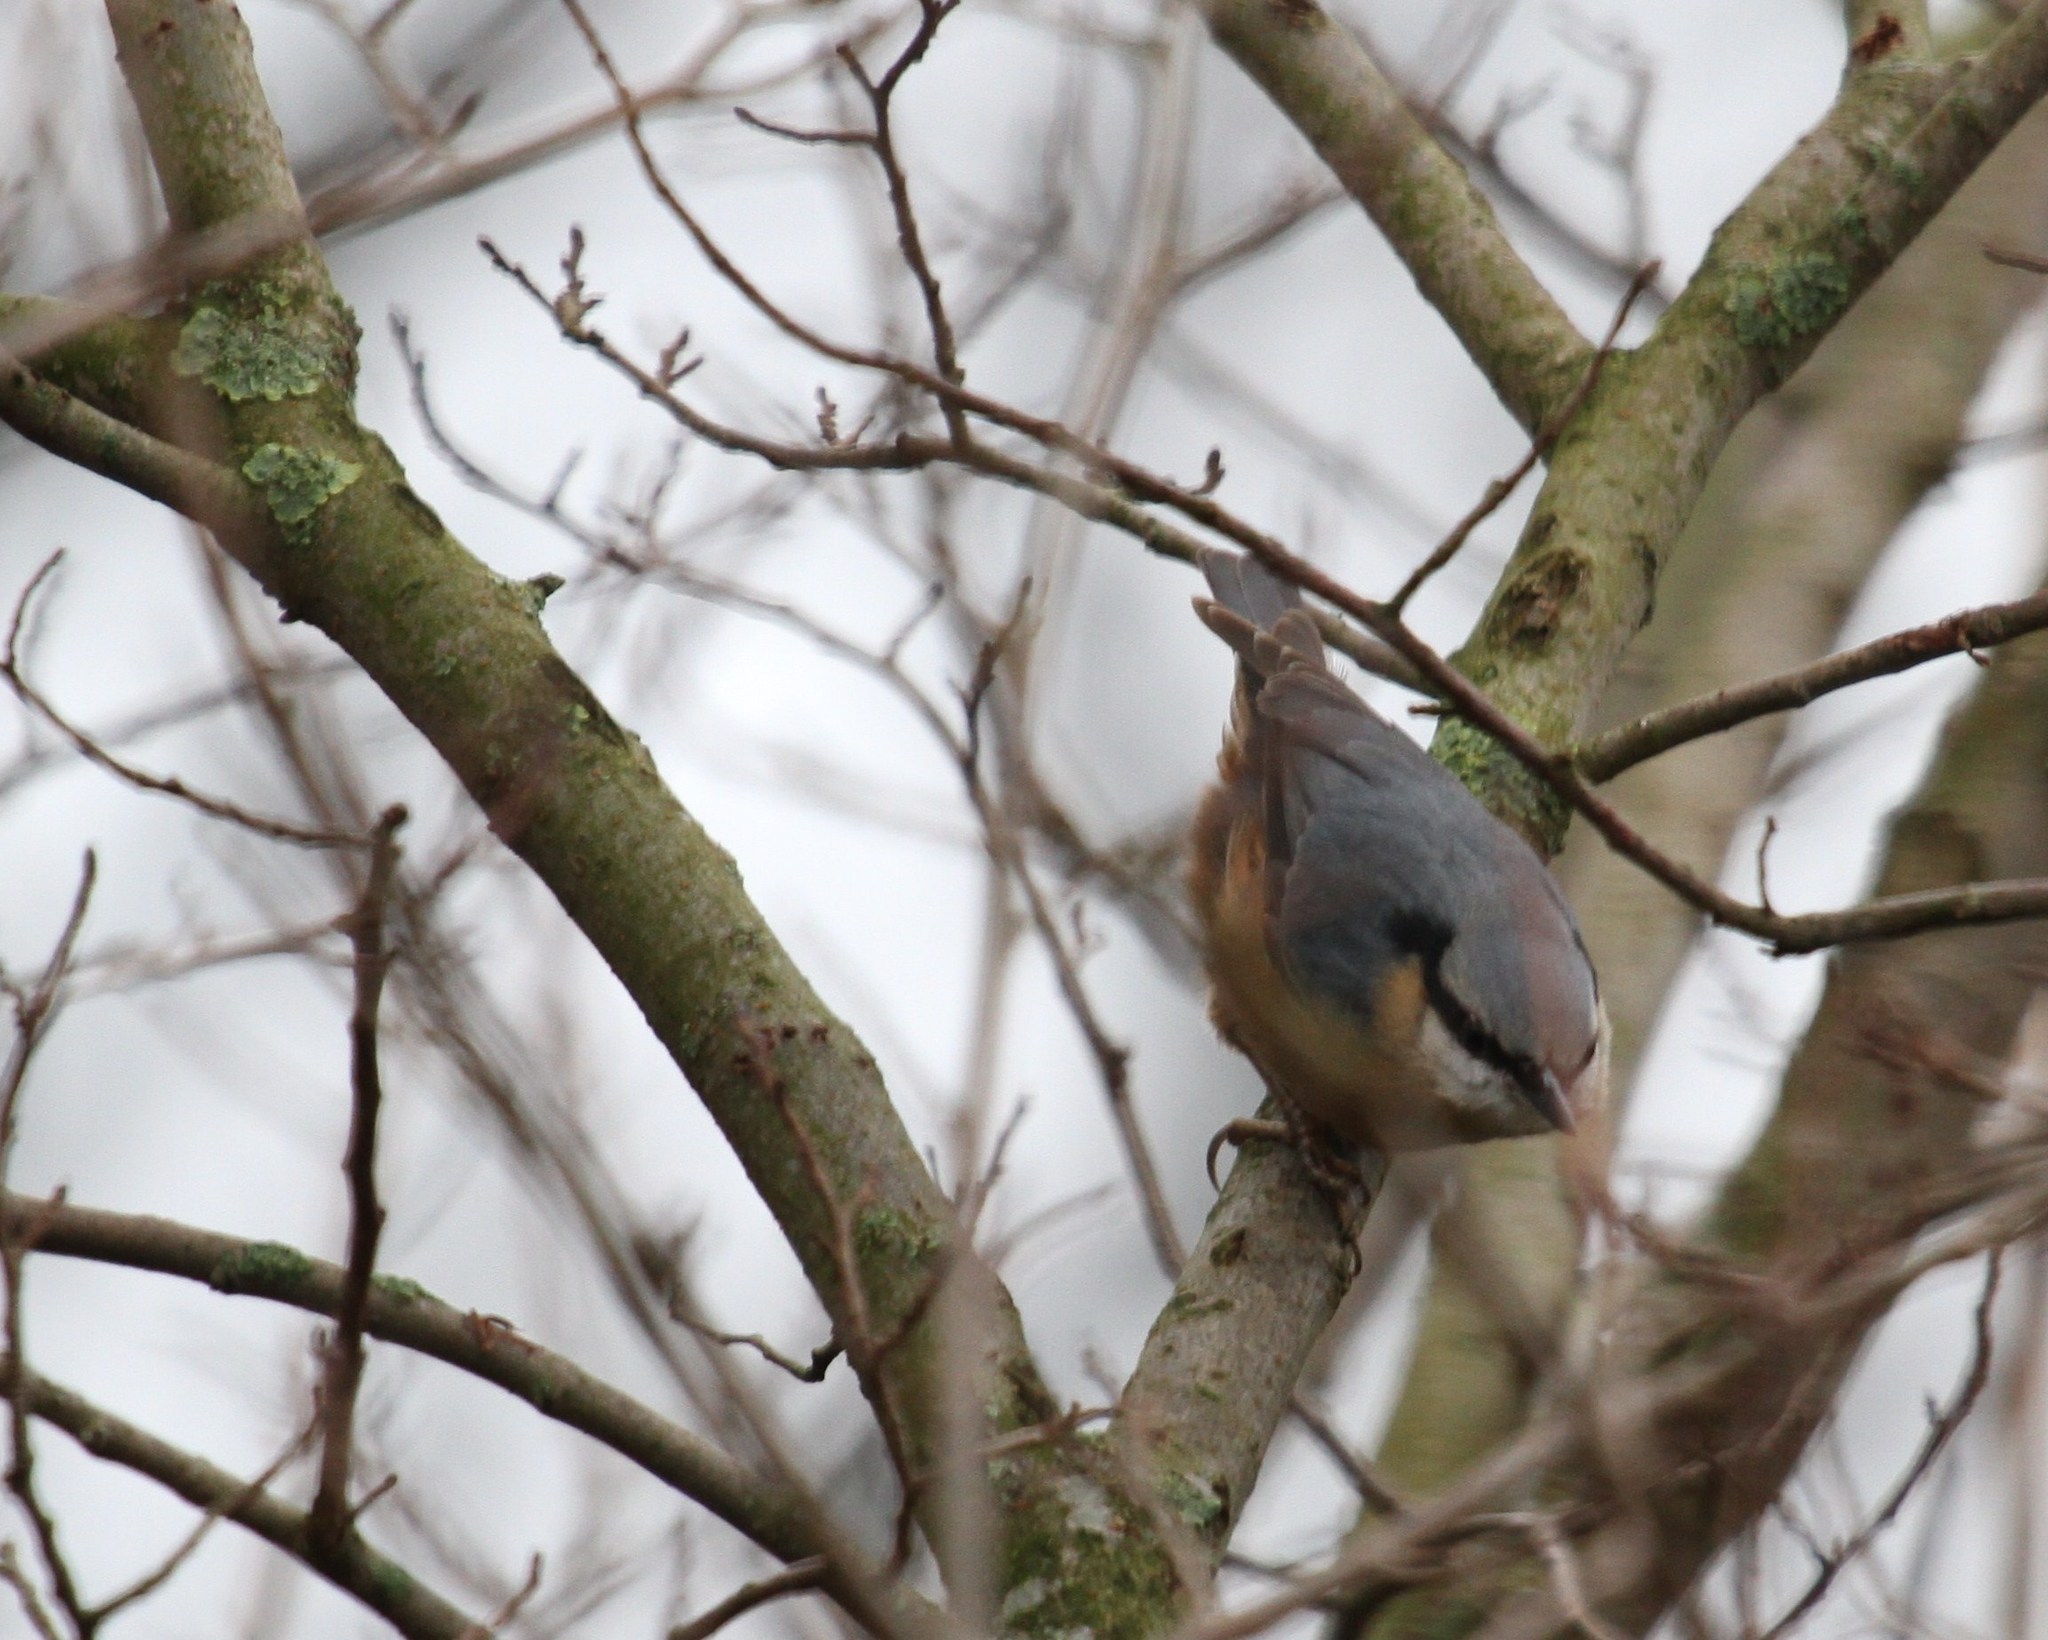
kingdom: Animalia
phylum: Chordata
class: Aves
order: Passeriformes
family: Sittidae
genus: Sitta
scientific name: Sitta europaea
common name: Eurasian nuthatch
